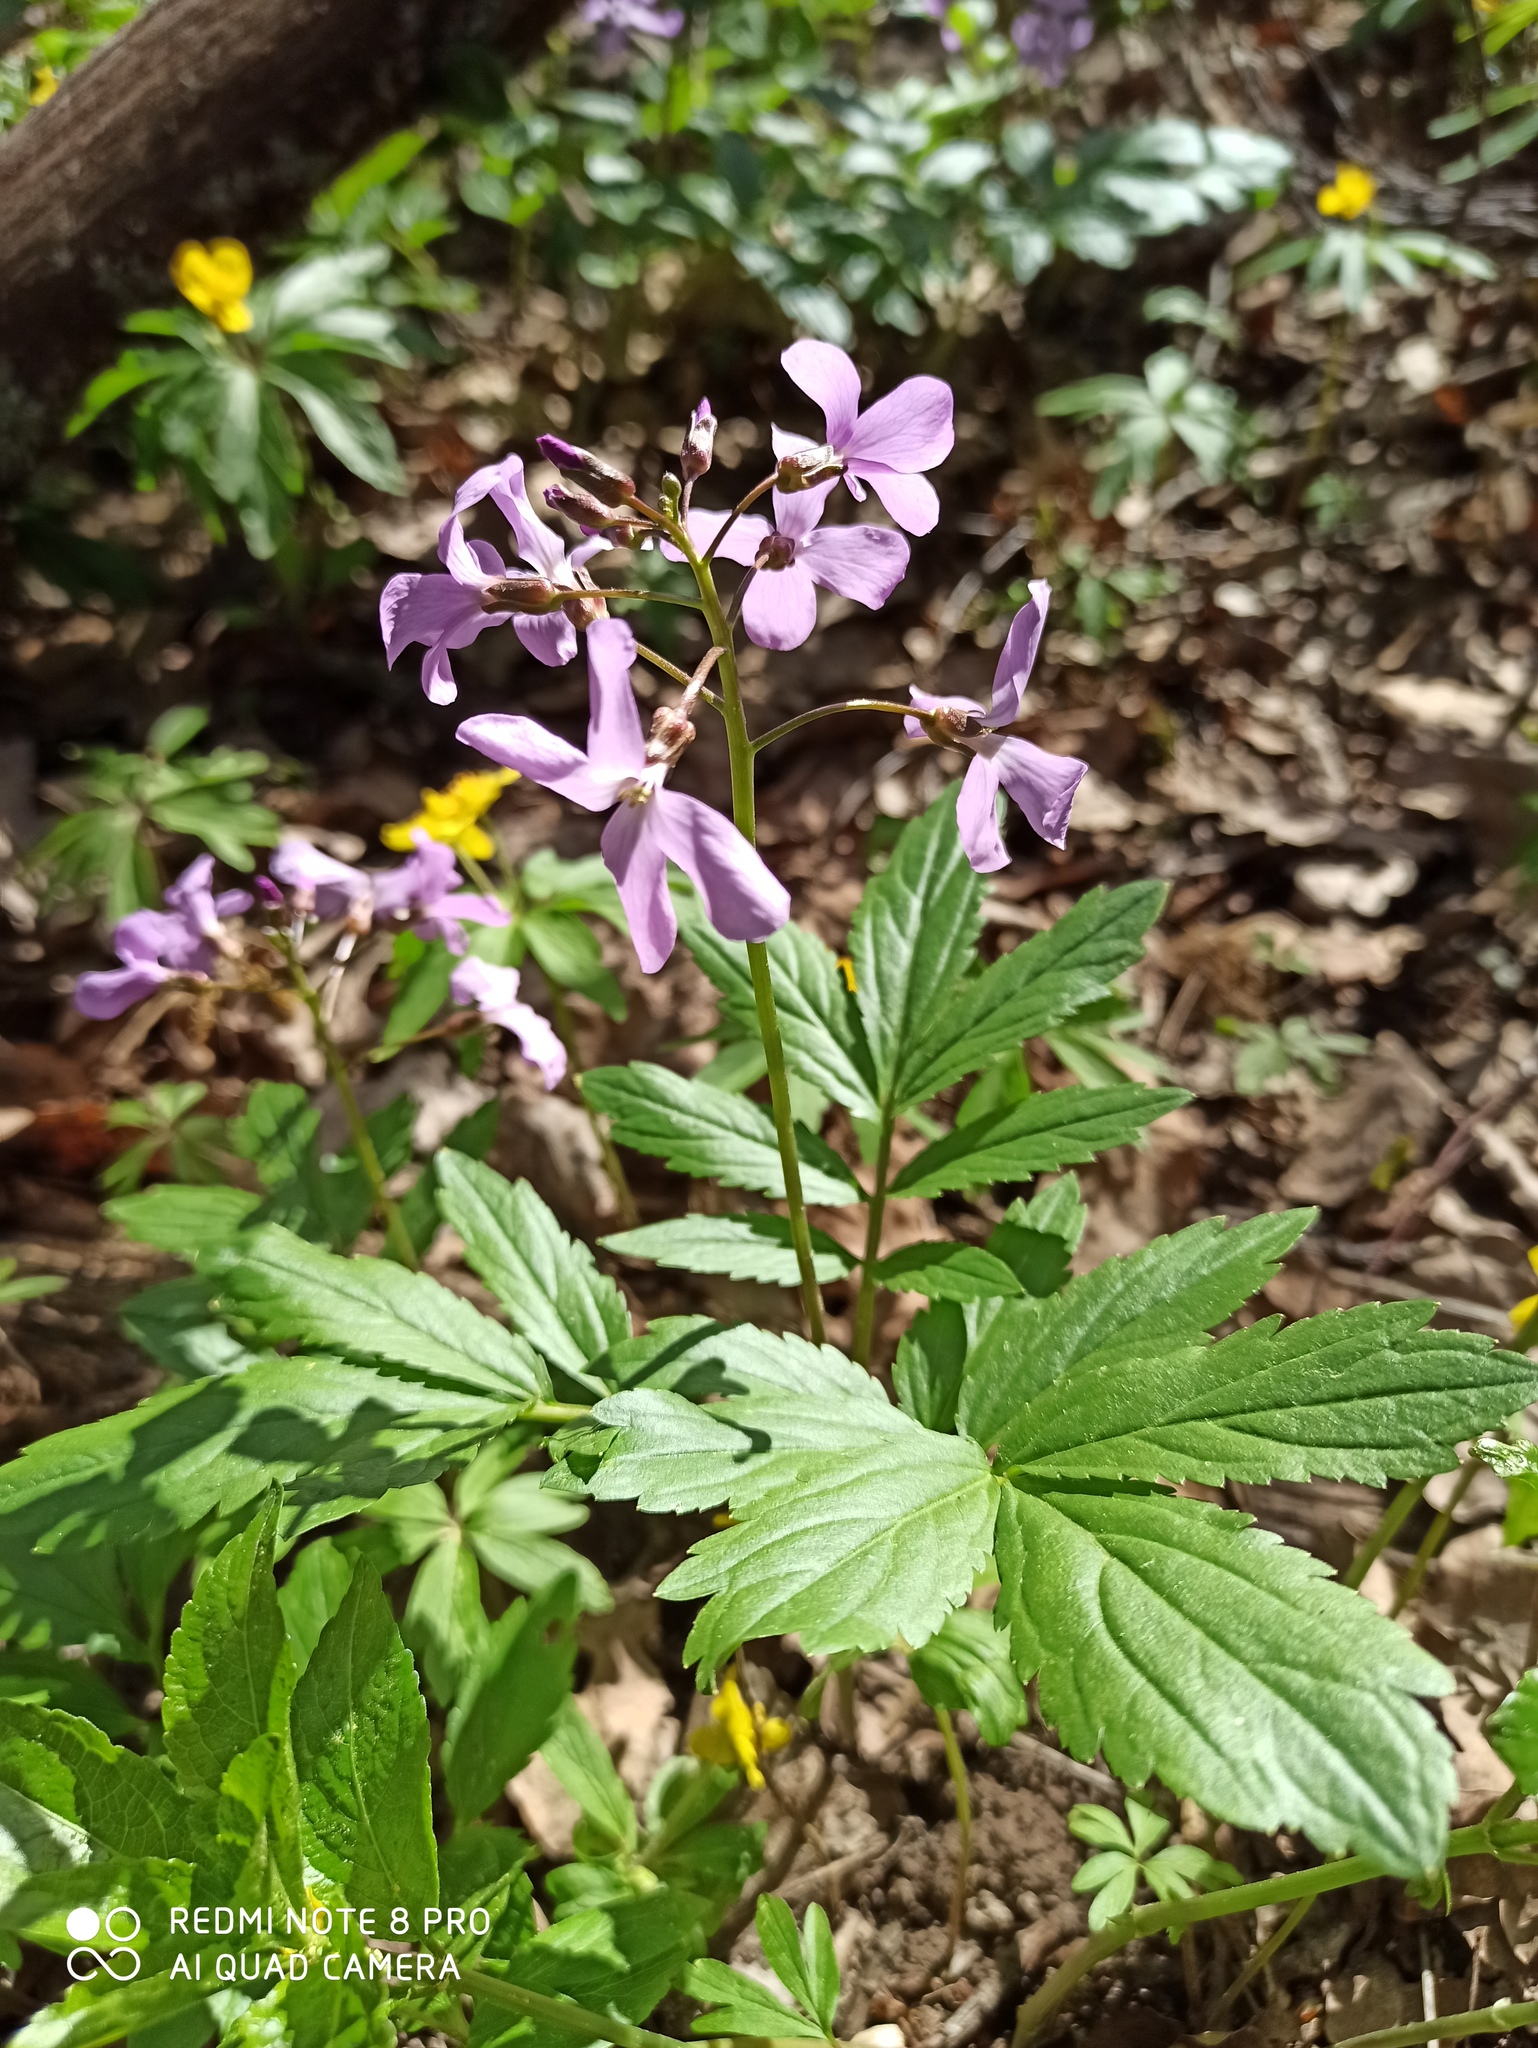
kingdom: Plantae
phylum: Tracheophyta
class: Magnoliopsida
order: Brassicales
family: Brassicaceae
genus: Cardamine
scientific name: Cardamine quinquefolia
